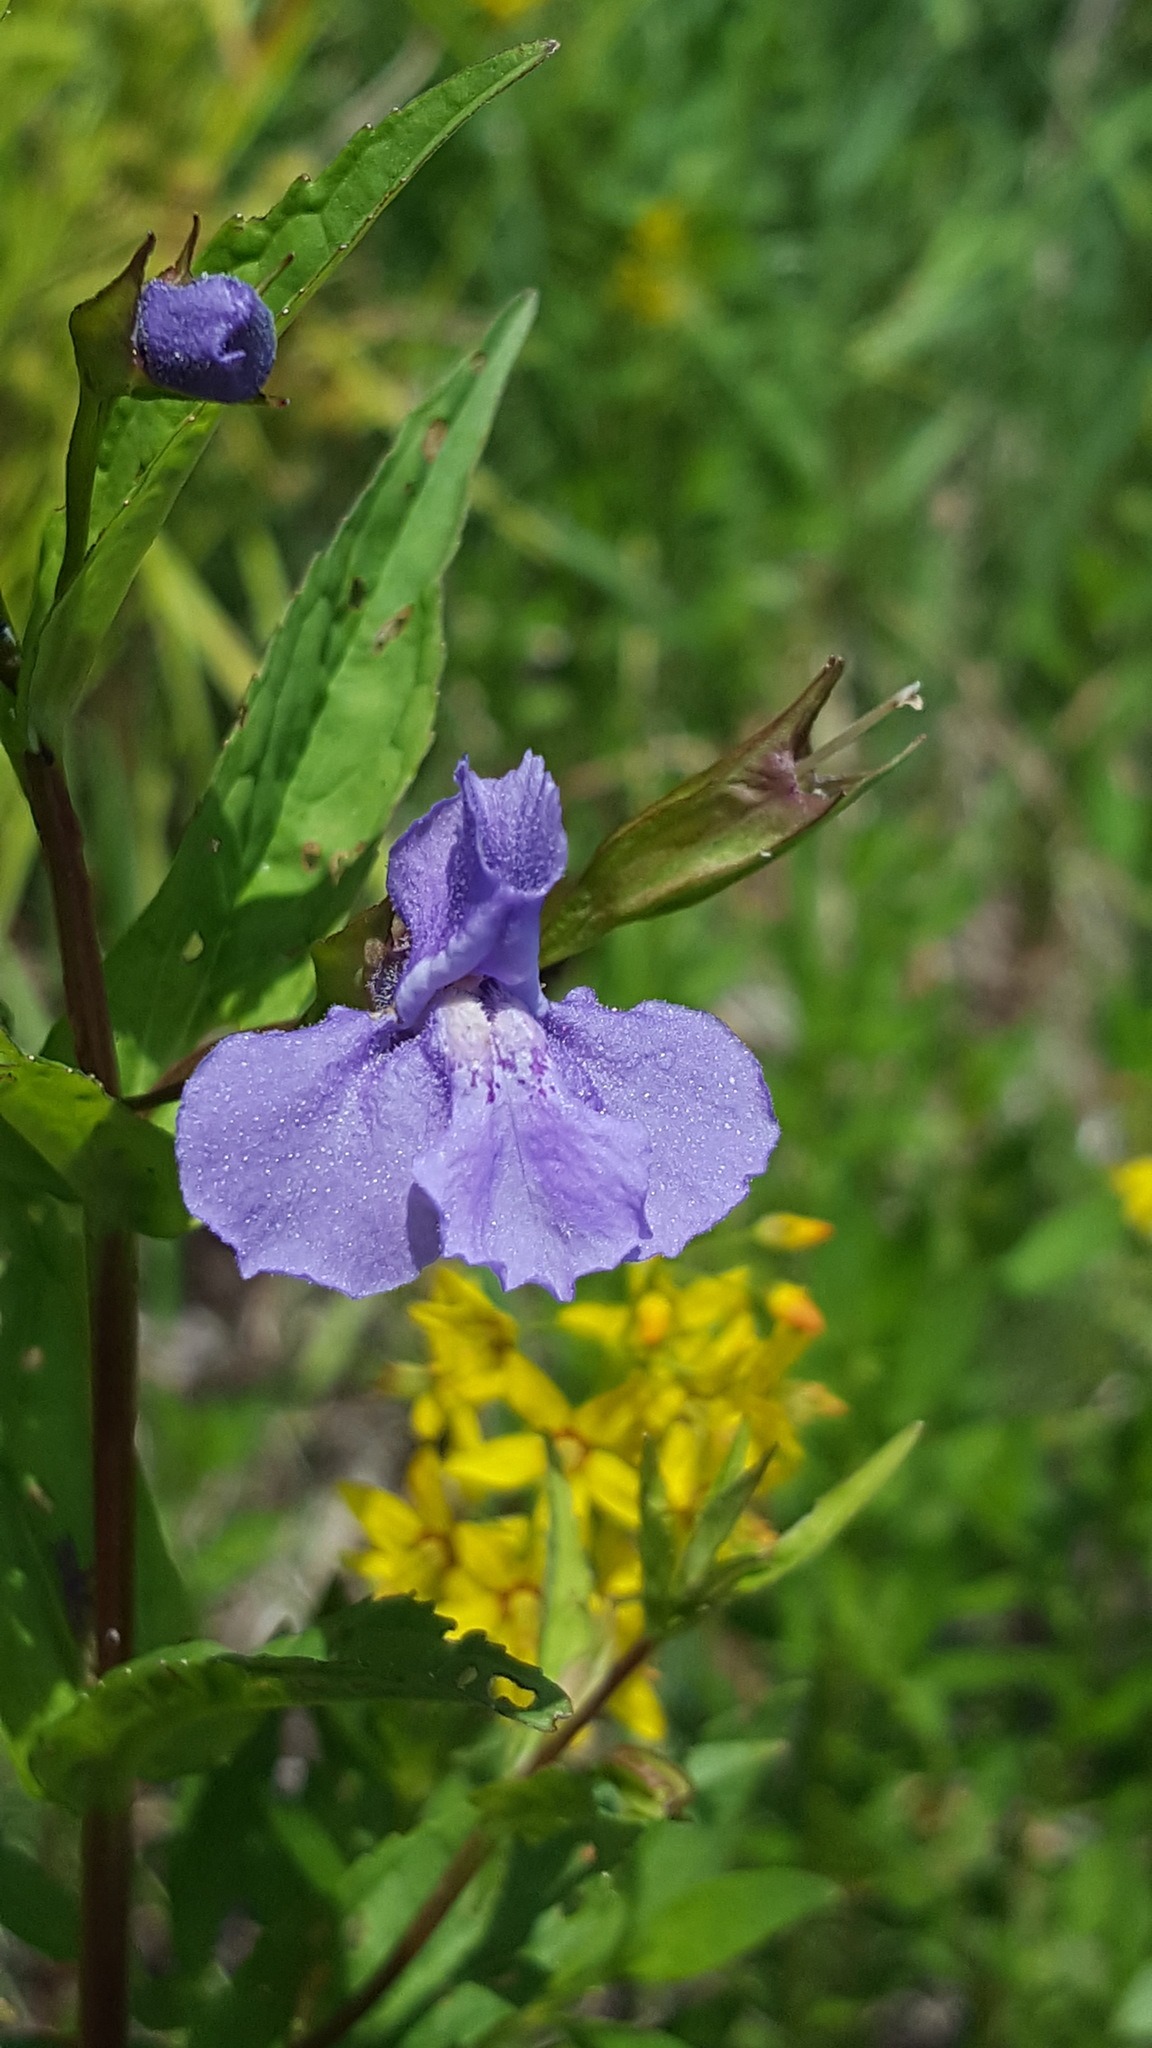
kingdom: Plantae
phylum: Tracheophyta
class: Magnoliopsida
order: Lamiales
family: Phrymaceae
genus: Mimulus
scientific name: Mimulus ringens
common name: Allegheny monkeyflower
